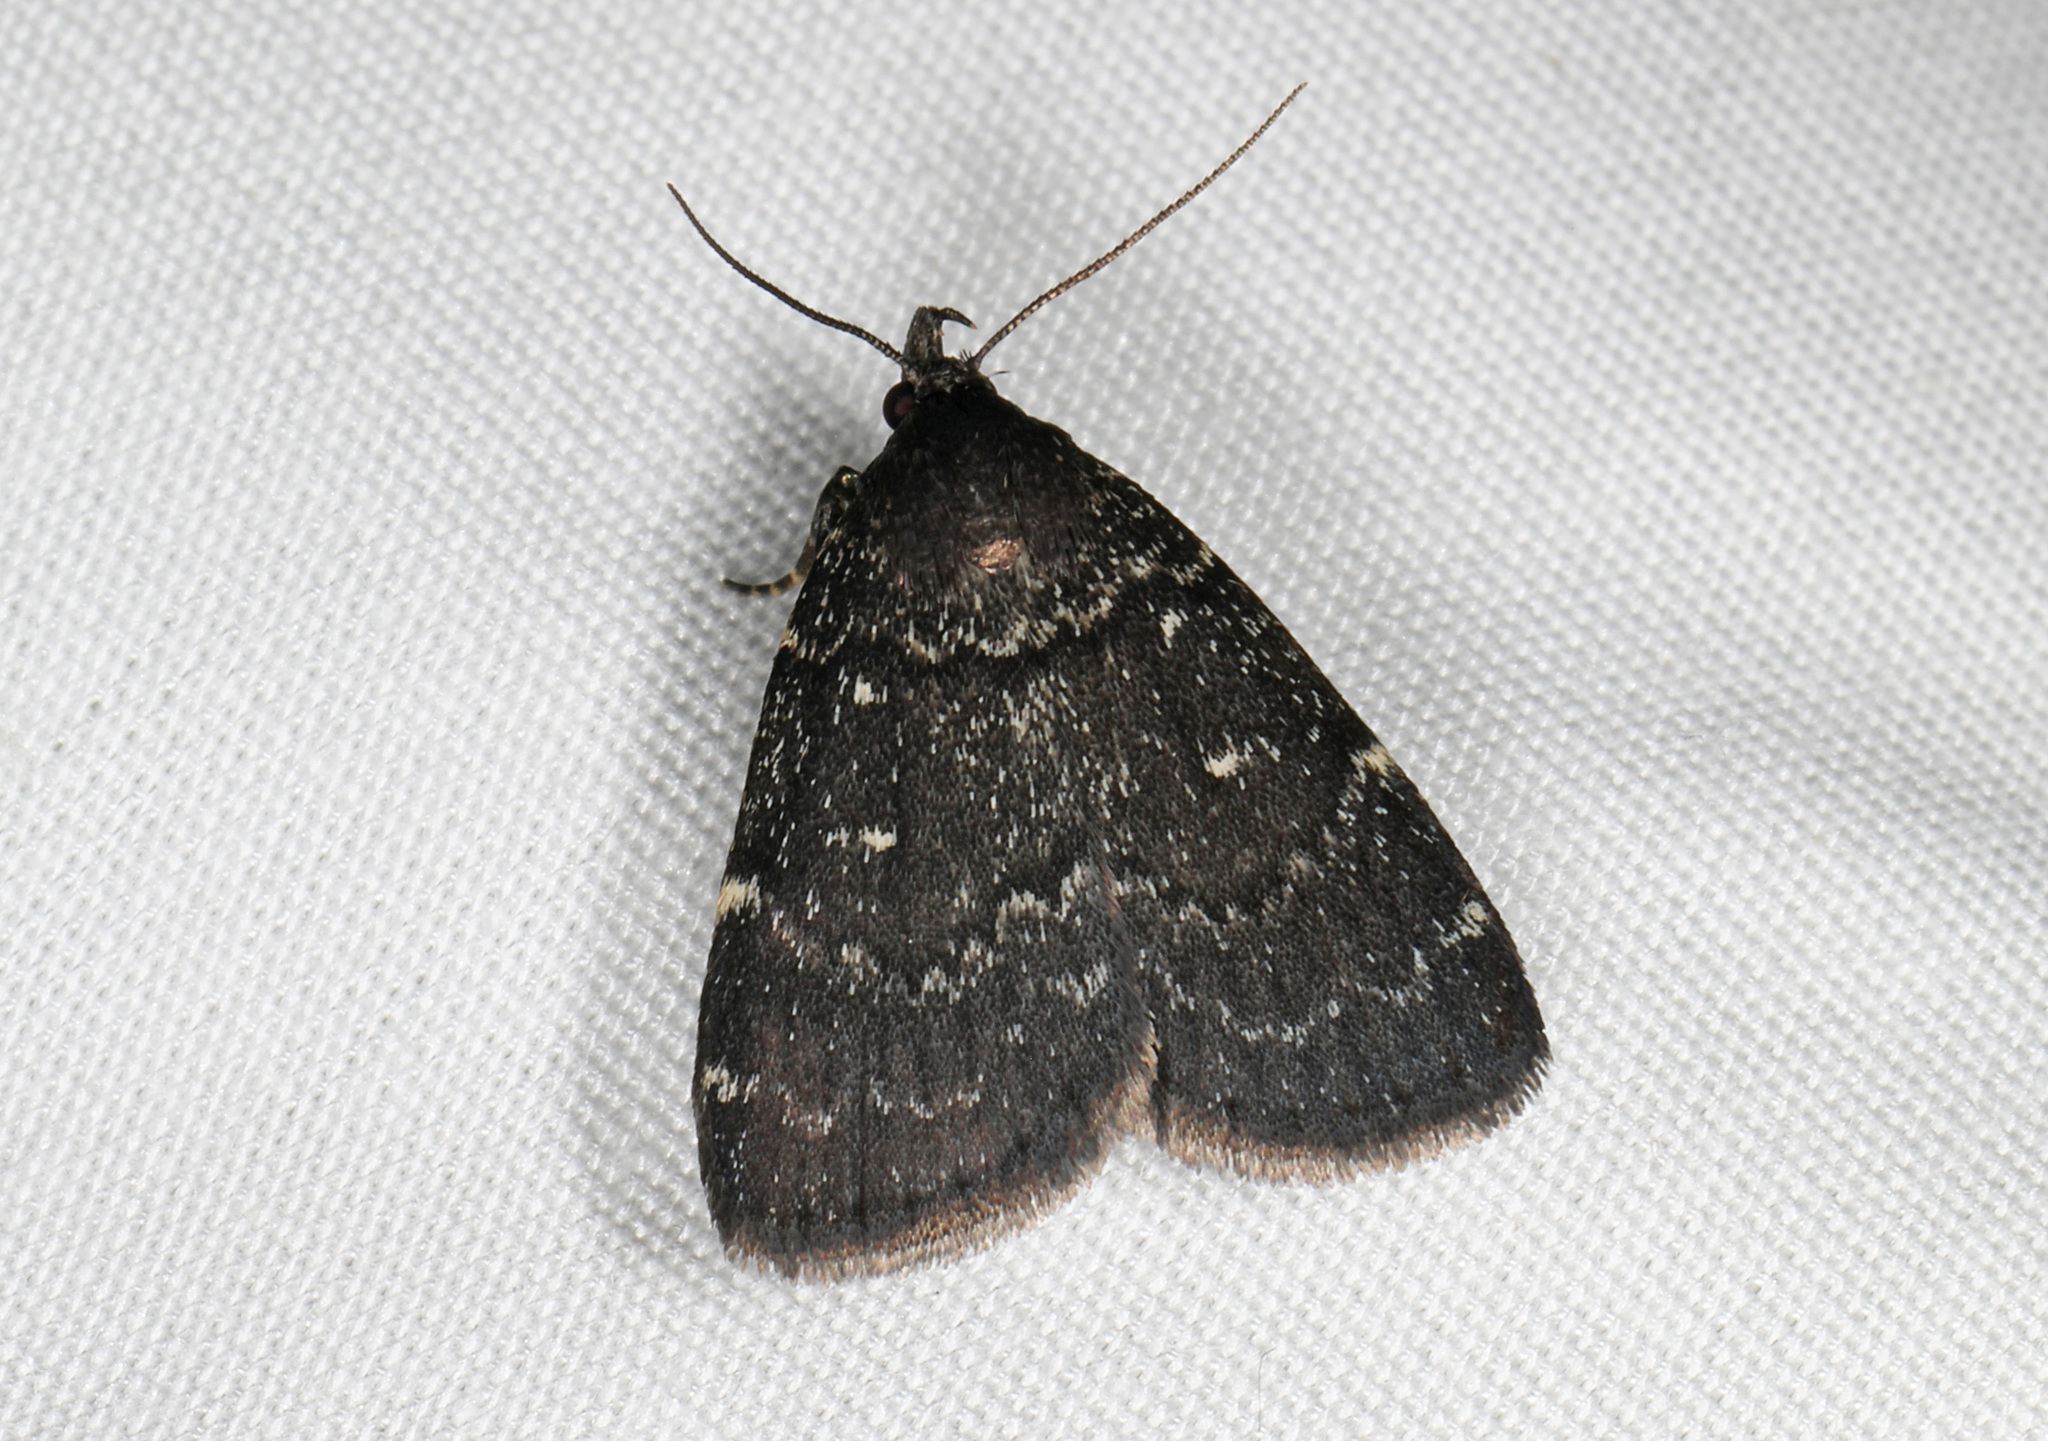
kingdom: Animalia
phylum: Arthropoda
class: Insecta
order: Lepidoptera
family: Erebidae
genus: Idia
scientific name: Idia julia
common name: Julia's idia moth
